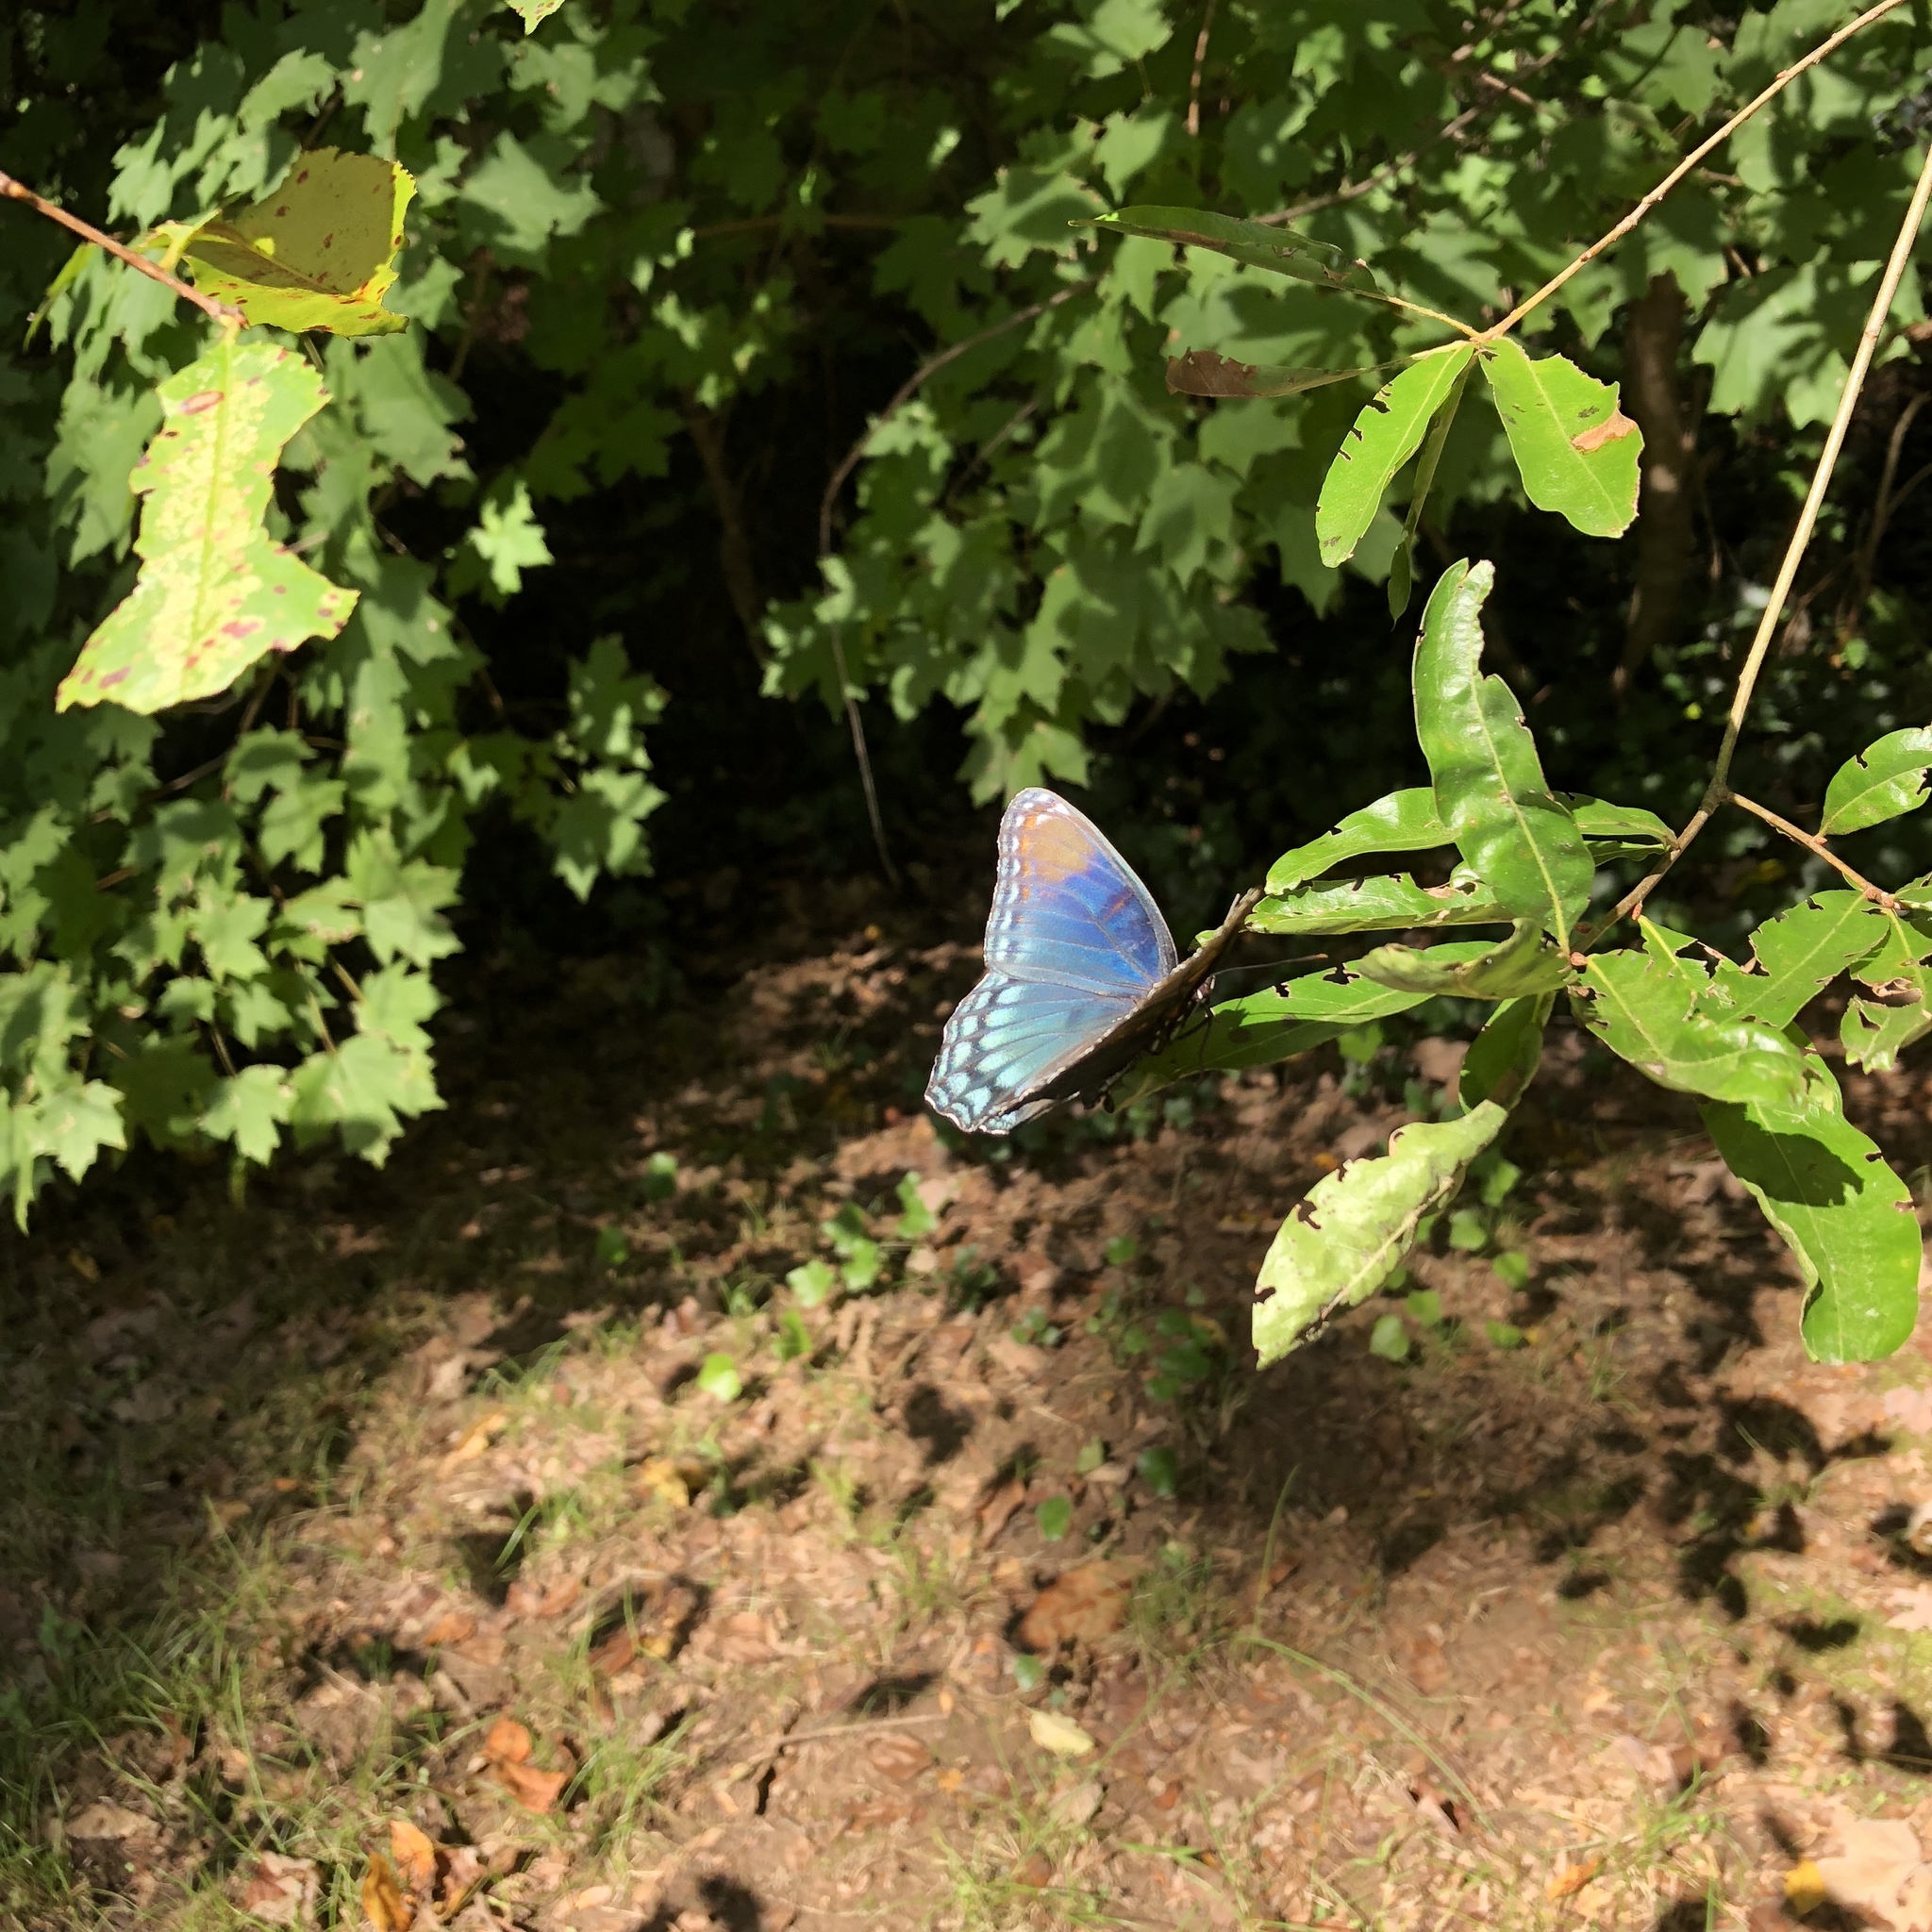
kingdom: Animalia
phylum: Arthropoda
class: Insecta
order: Lepidoptera
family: Nymphalidae
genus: Limenitis
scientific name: Limenitis astyanax
